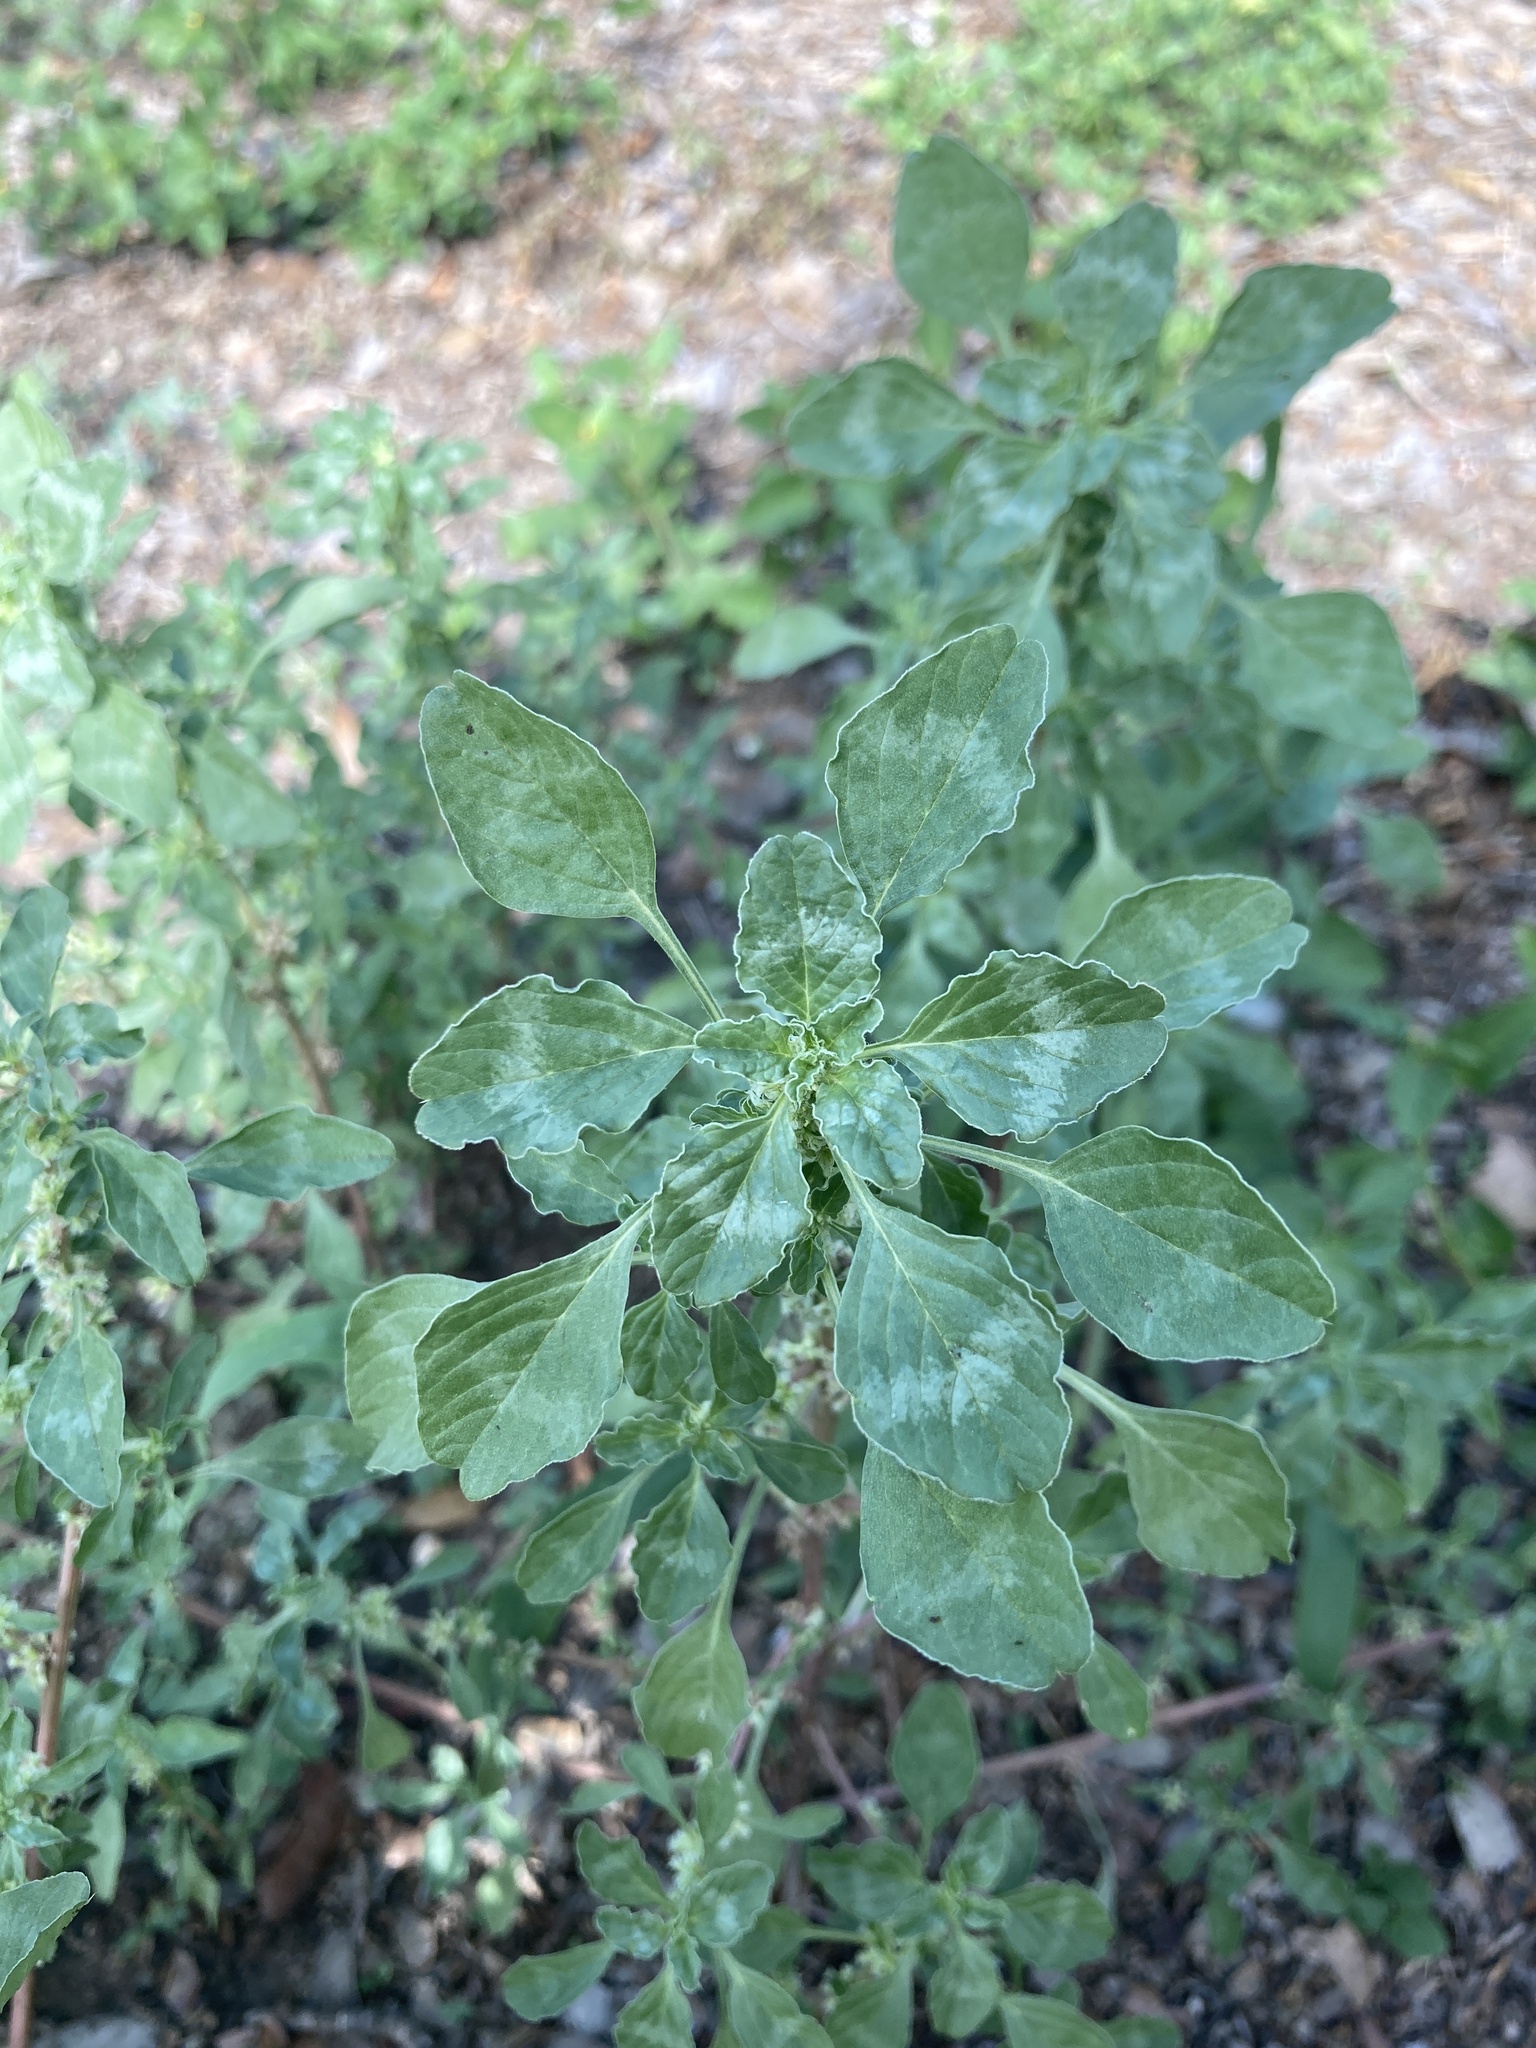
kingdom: Plantae
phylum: Tracheophyta
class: Magnoliopsida
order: Caryophyllales
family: Amaranthaceae
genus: Amaranthus
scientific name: Amaranthus polygonoides
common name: Tropical amaranth
